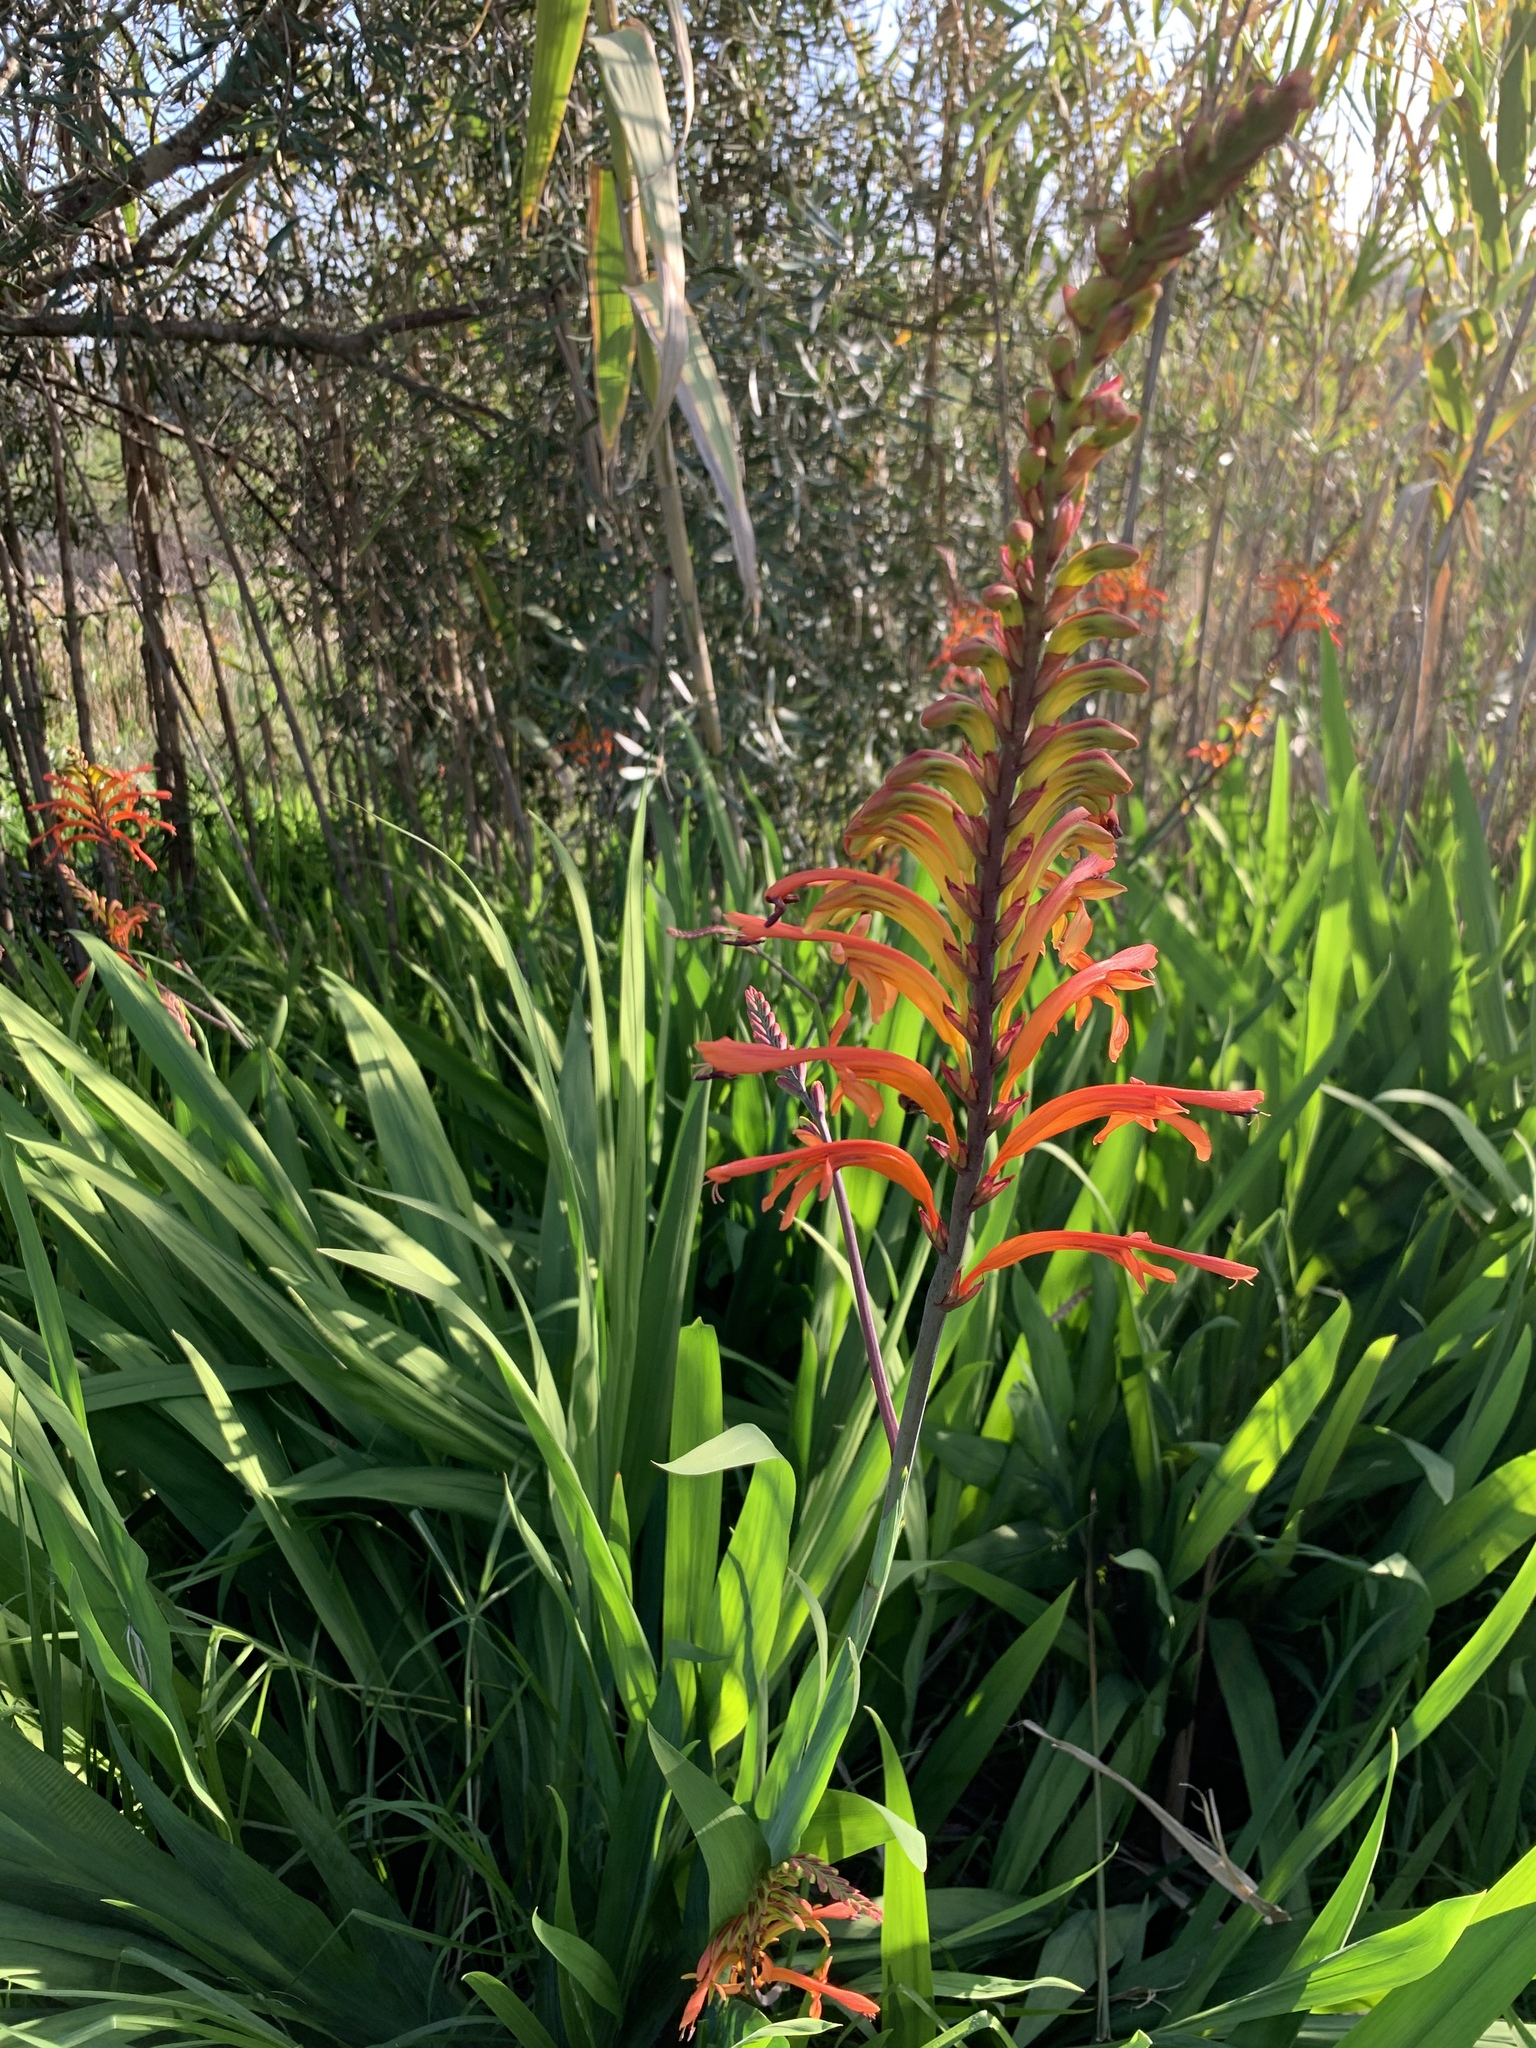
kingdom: Plantae
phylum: Tracheophyta
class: Liliopsida
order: Asparagales
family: Iridaceae
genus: Chasmanthe
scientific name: Chasmanthe floribunda
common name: African cornflag
